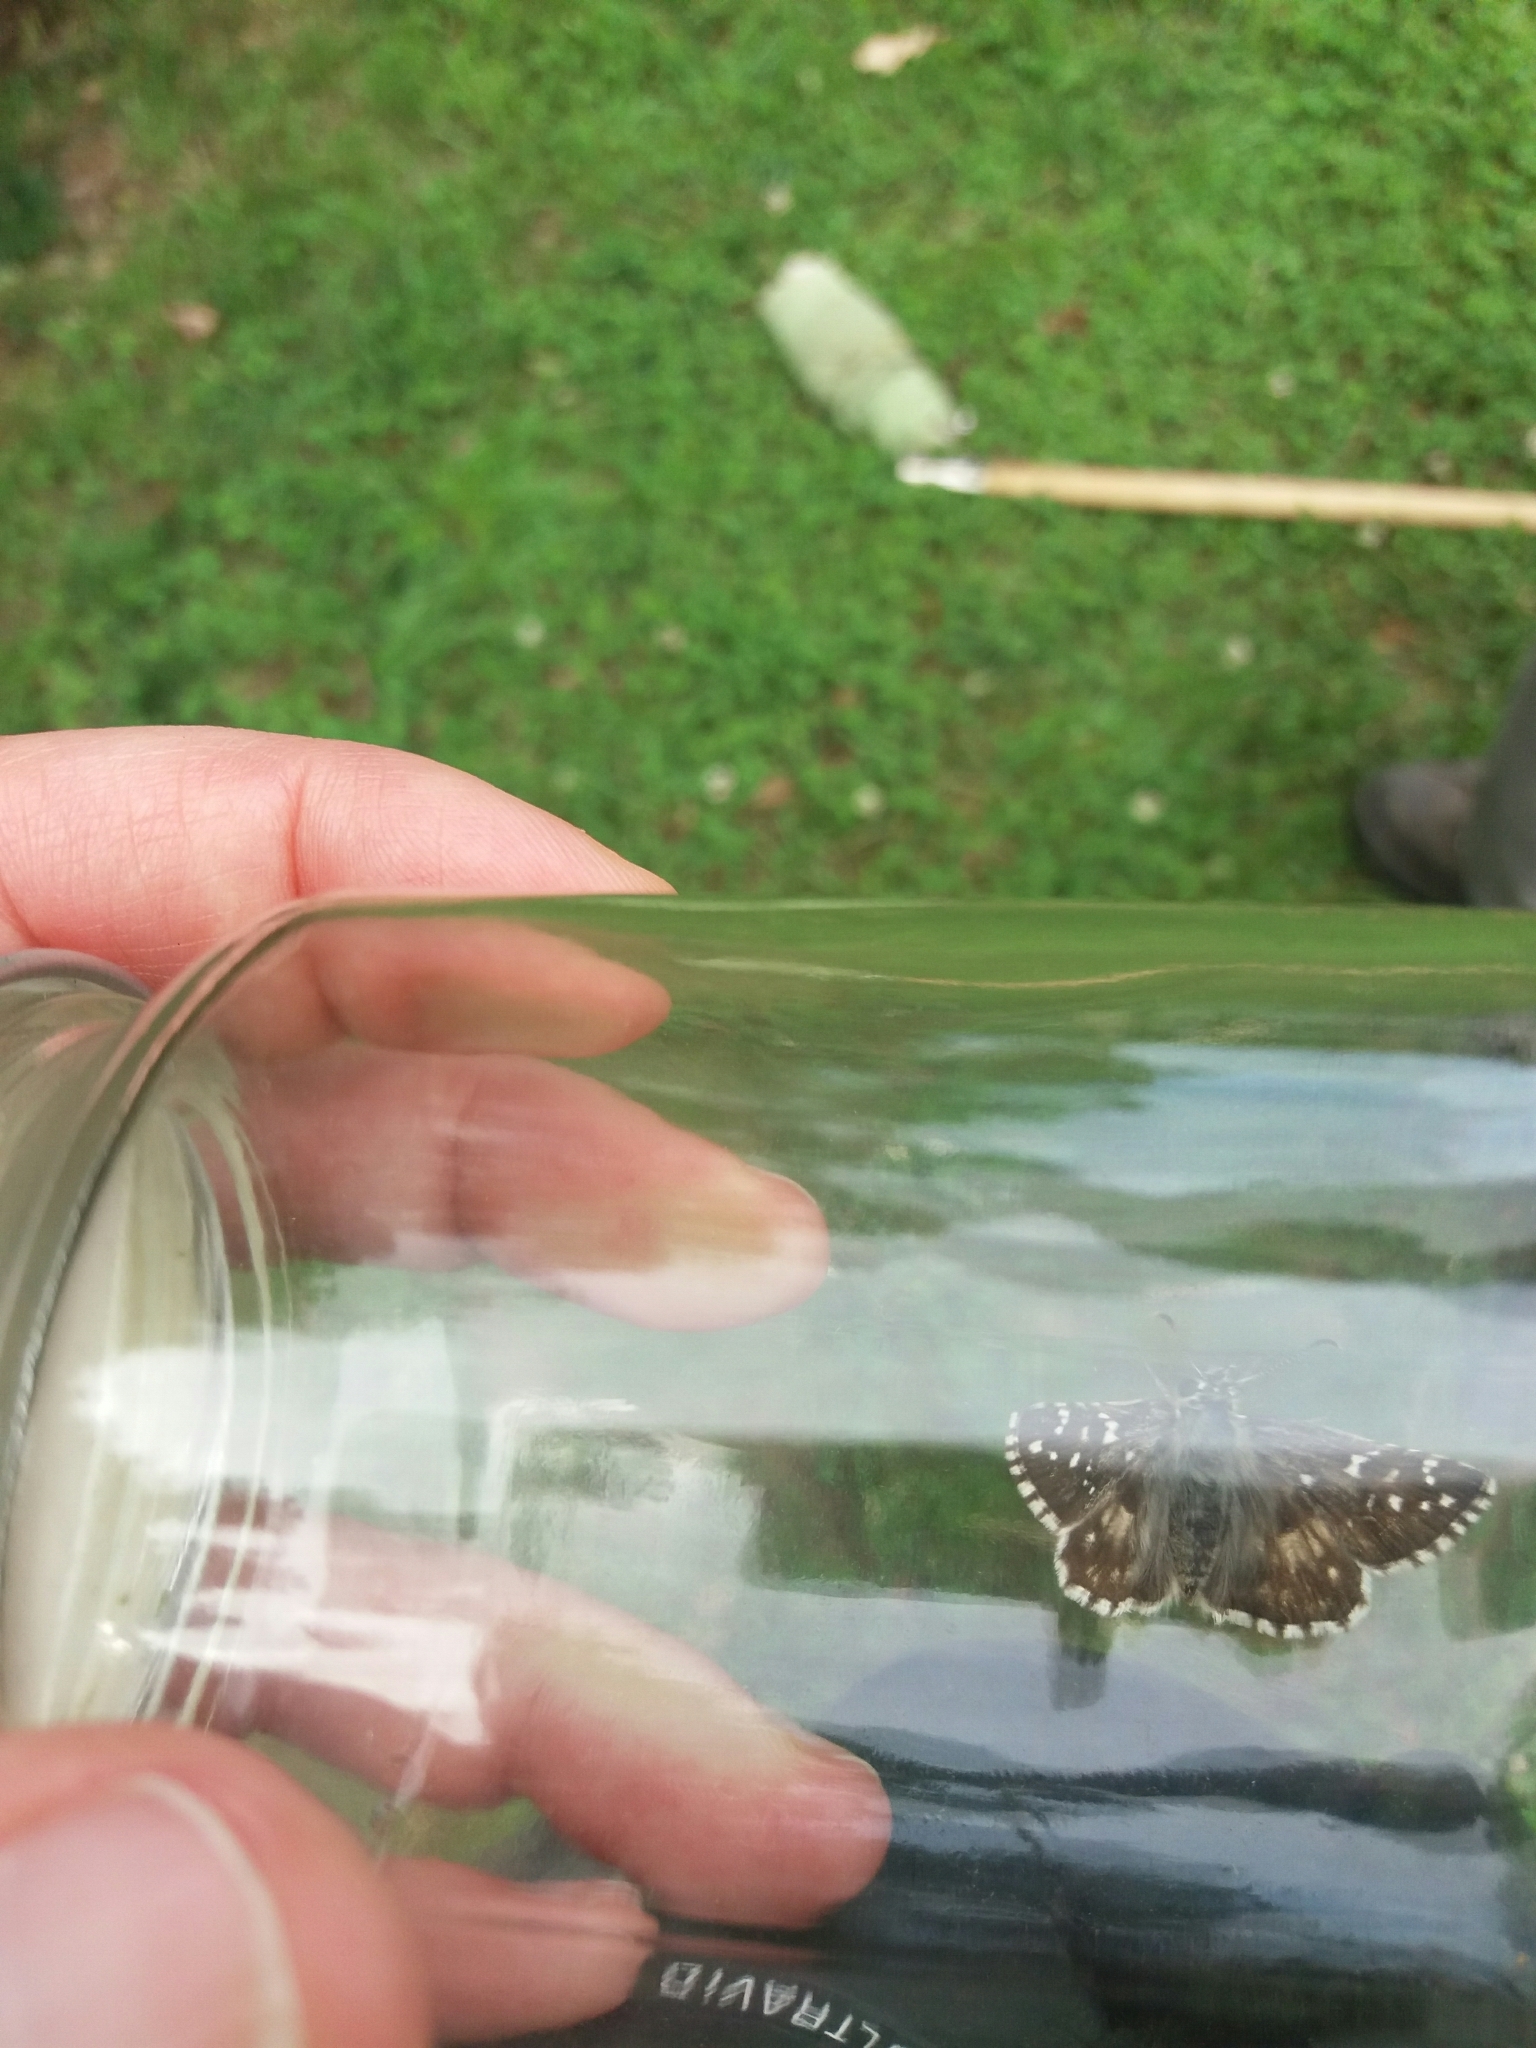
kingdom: Animalia
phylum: Arthropoda
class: Insecta
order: Lepidoptera
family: Hesperiidae
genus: Pyrgus
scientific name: Pyrgus armoricanus
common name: Oberthür's grizzled skipper
